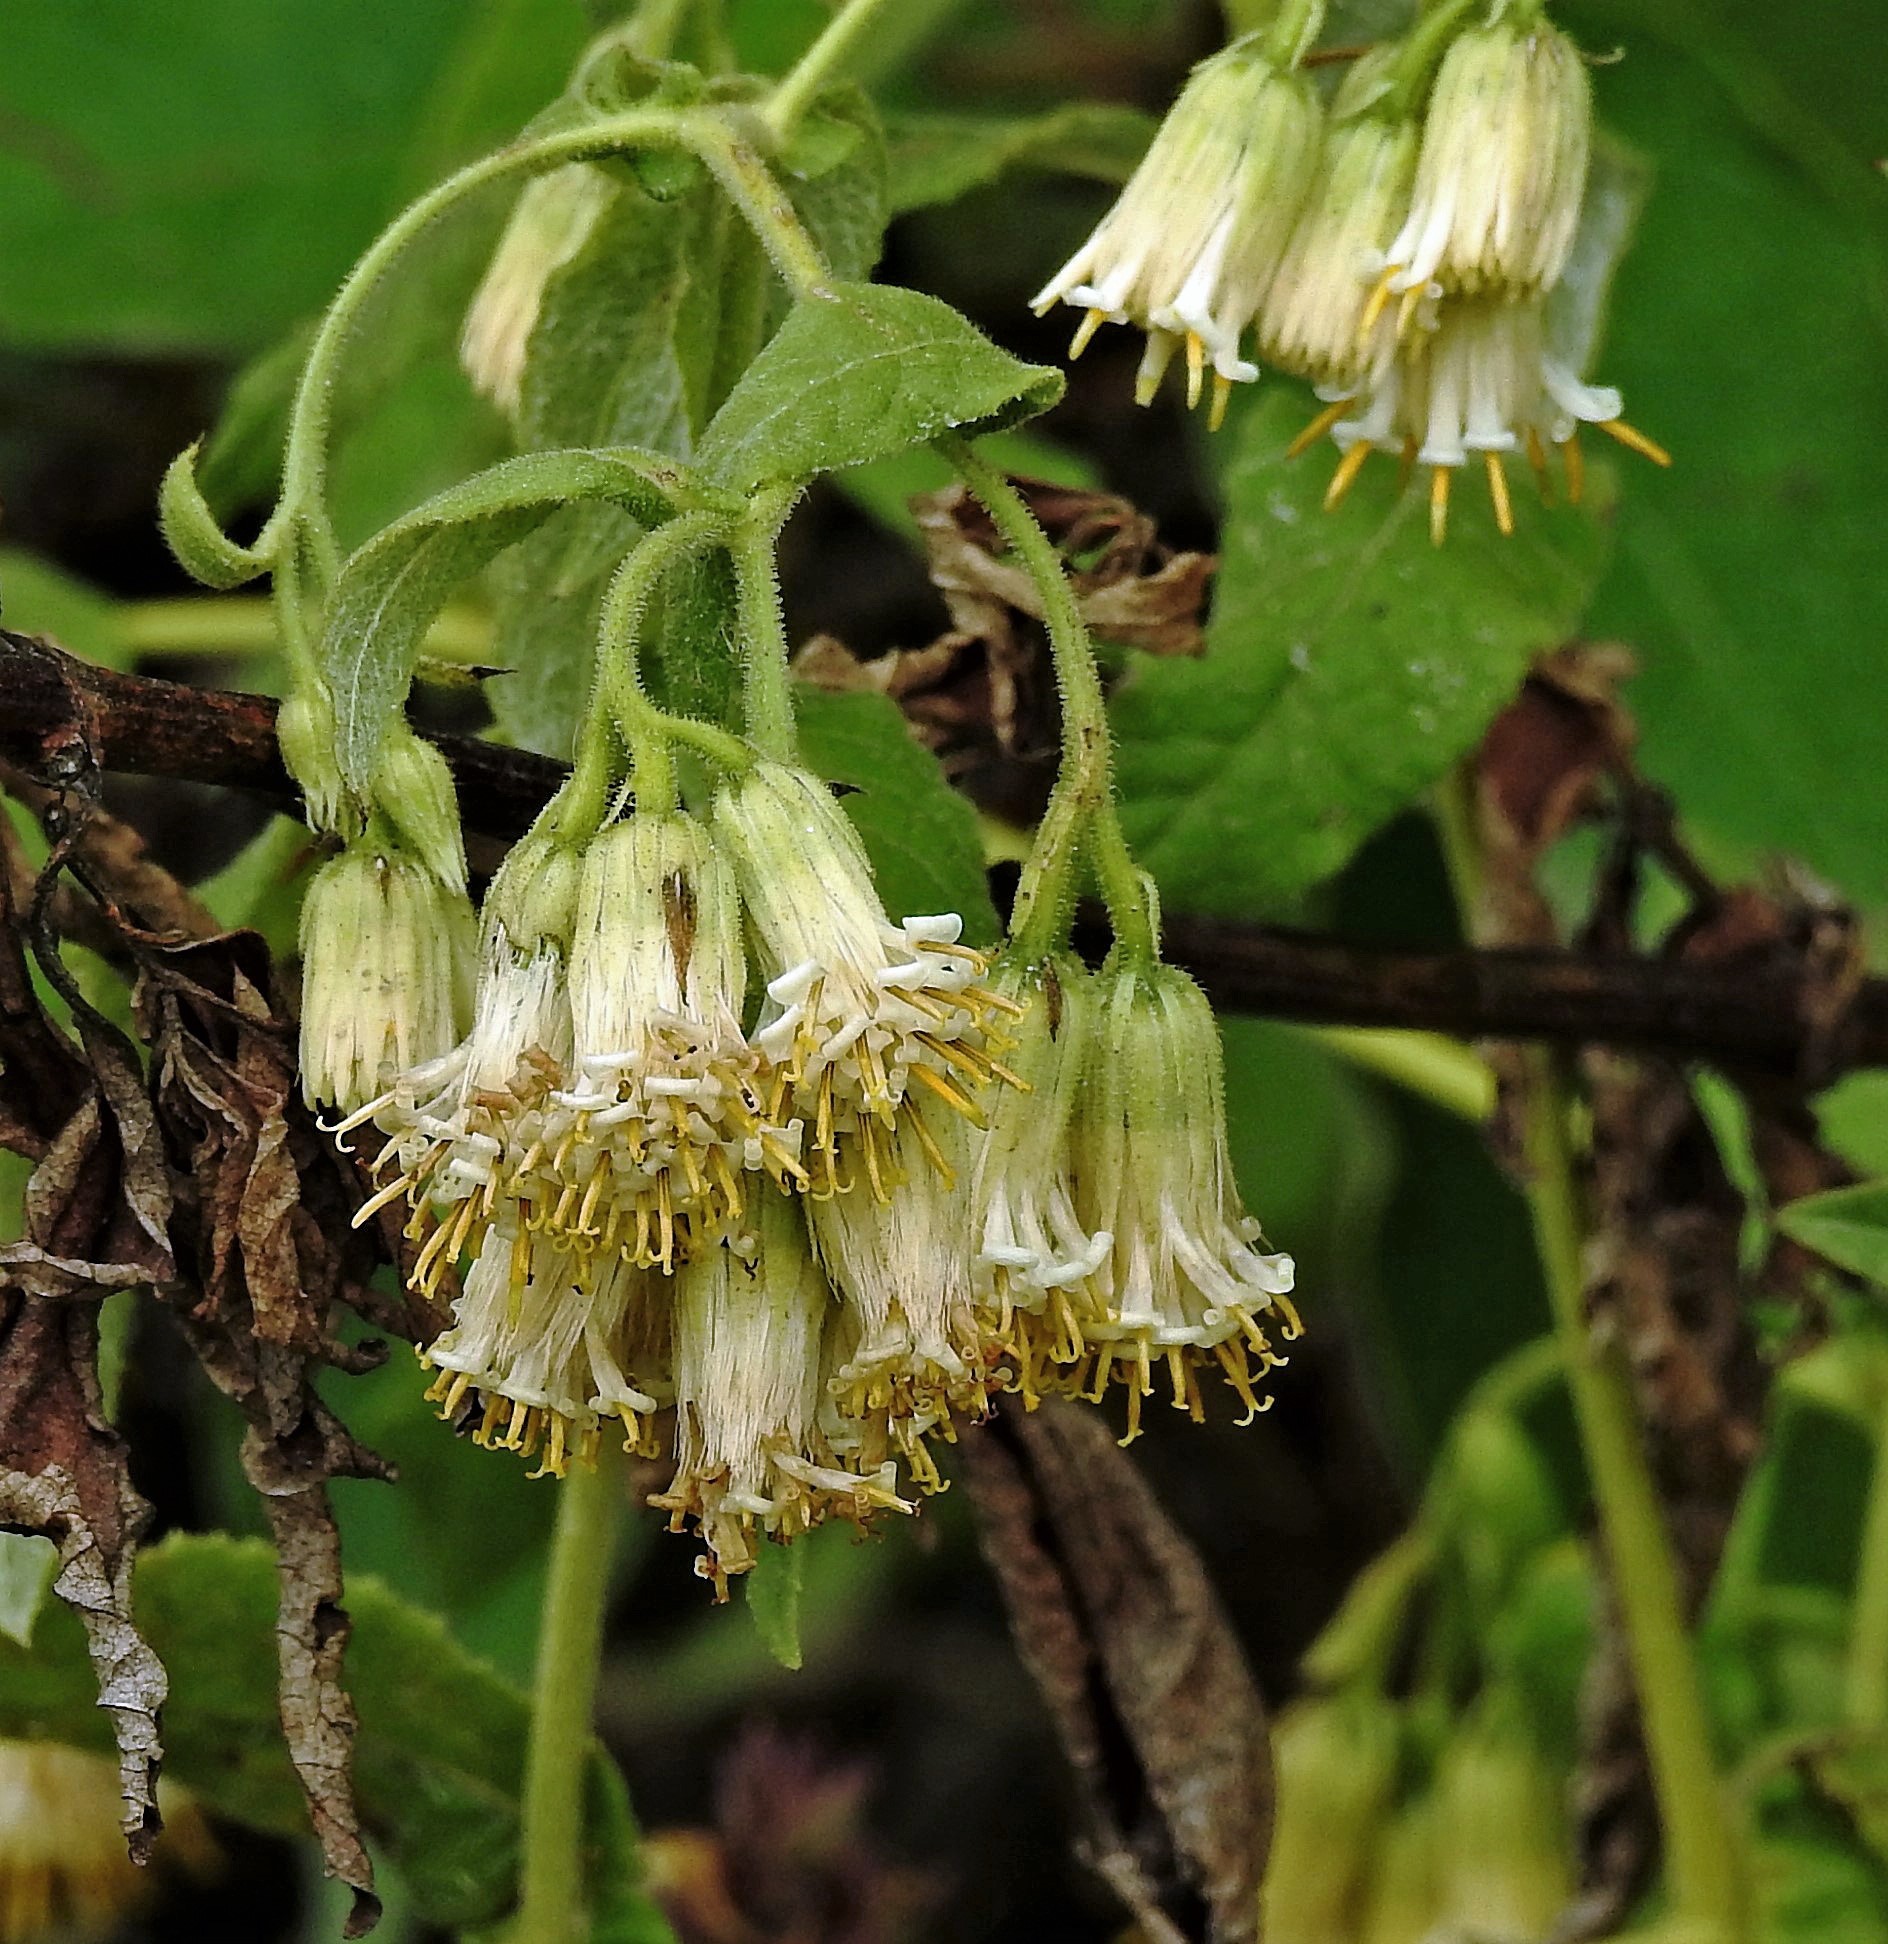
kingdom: Plantae
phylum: Tracheophyta
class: Magnoliopsida
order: Asterales
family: Asteraceae
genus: Trixis
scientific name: Trixis grisebachii
